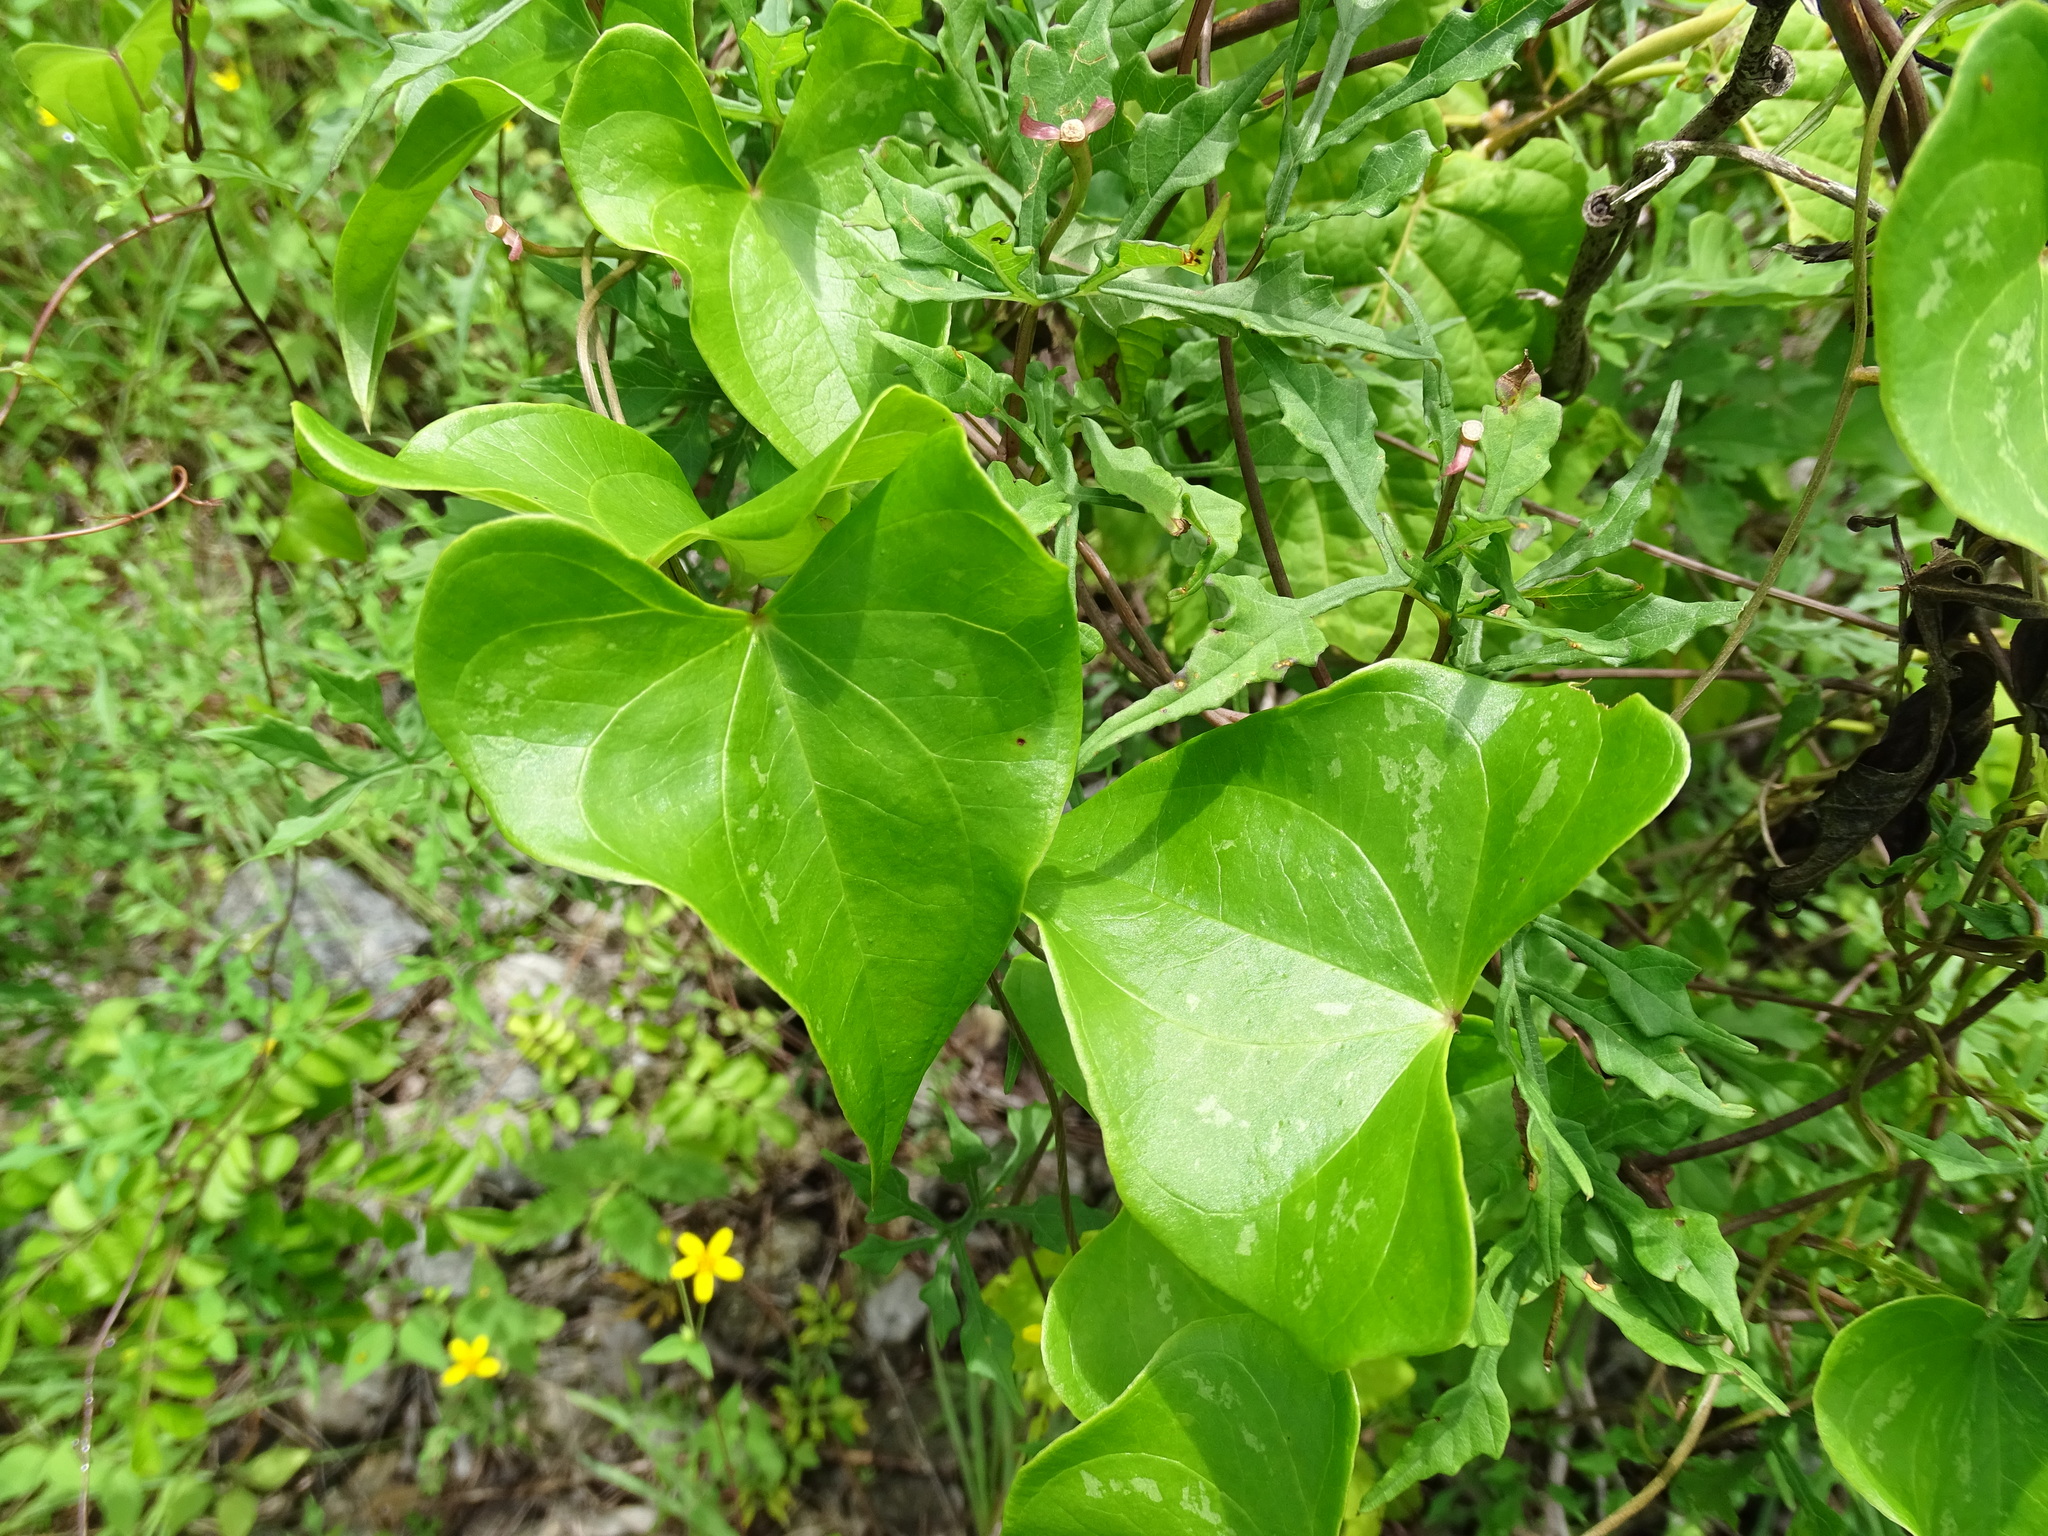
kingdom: Plantae
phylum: Tracheophyta
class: Magnoliopsida
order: Solanales
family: Convolvulaceae
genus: Ipomoea
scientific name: Ipomoea anisomeres
